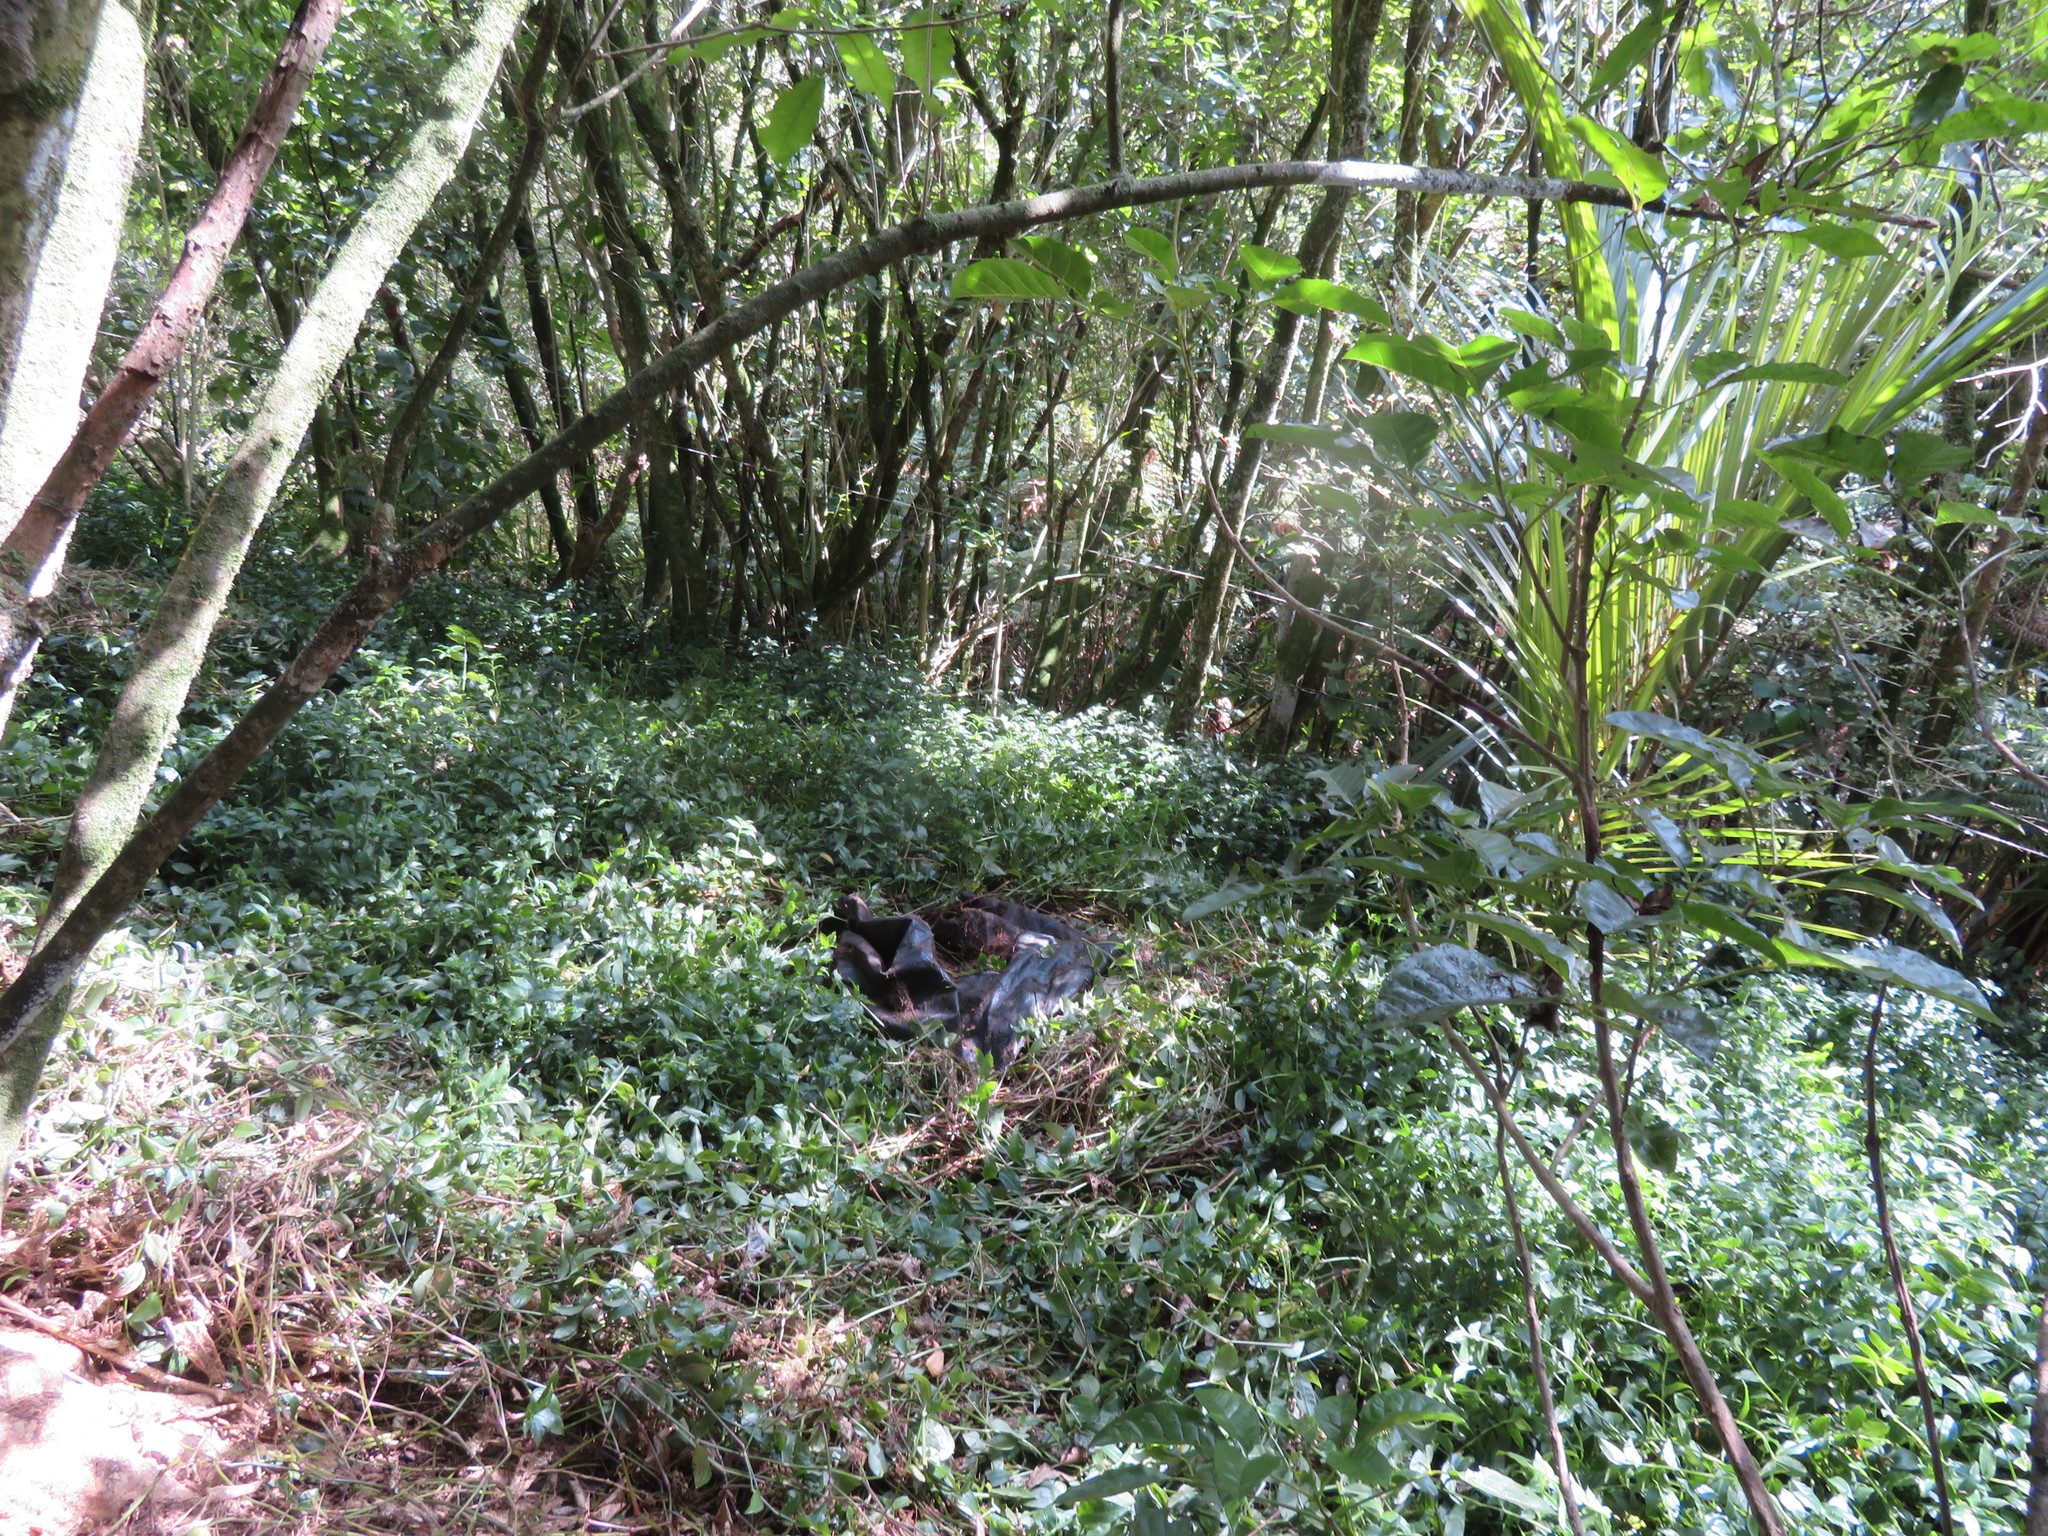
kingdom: Plantae
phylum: Tracheophyta
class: Liliopsida
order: Commelinales
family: Commelinaceae
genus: Tradescantia
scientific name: Tradescantia fluminensis
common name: Wandering-jew
